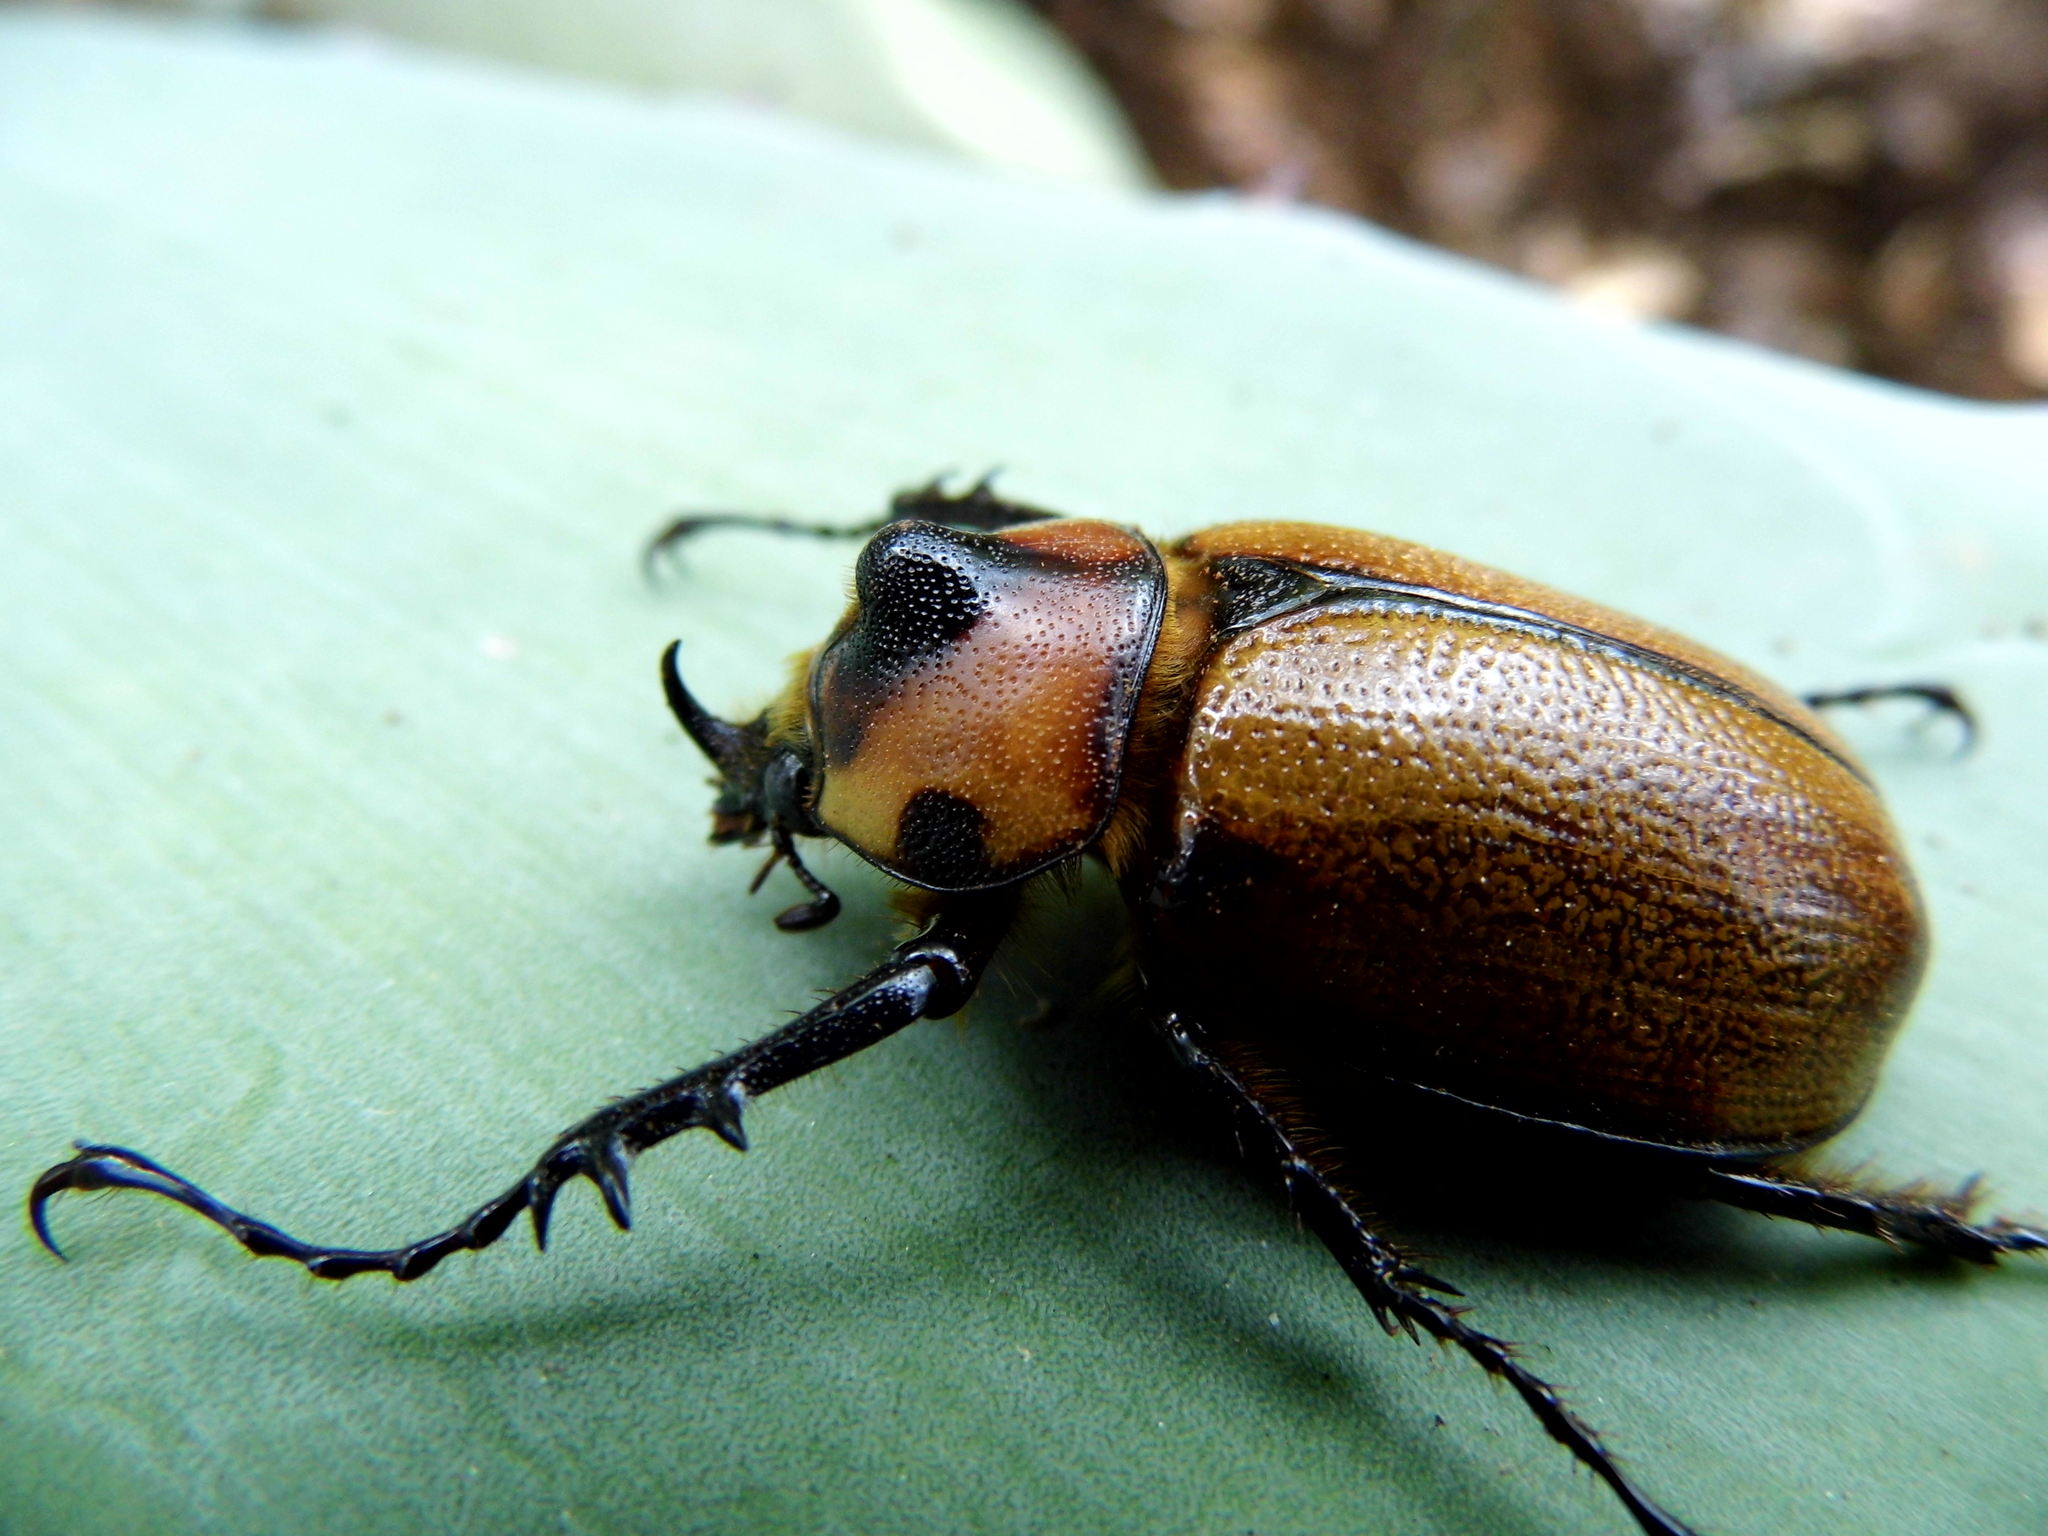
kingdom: Animalia
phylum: Arthropoda
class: Insecta
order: Coleoptera
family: Scarabaeidae
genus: Golofa
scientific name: Golofa pizarro
